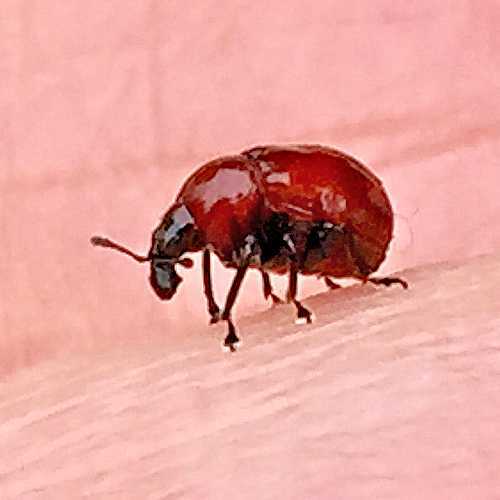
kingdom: Animalia
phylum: Arthropoda
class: Insecta
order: Coleoptera
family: Attelabidae
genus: Synolabus
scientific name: Synolabus nigripes
